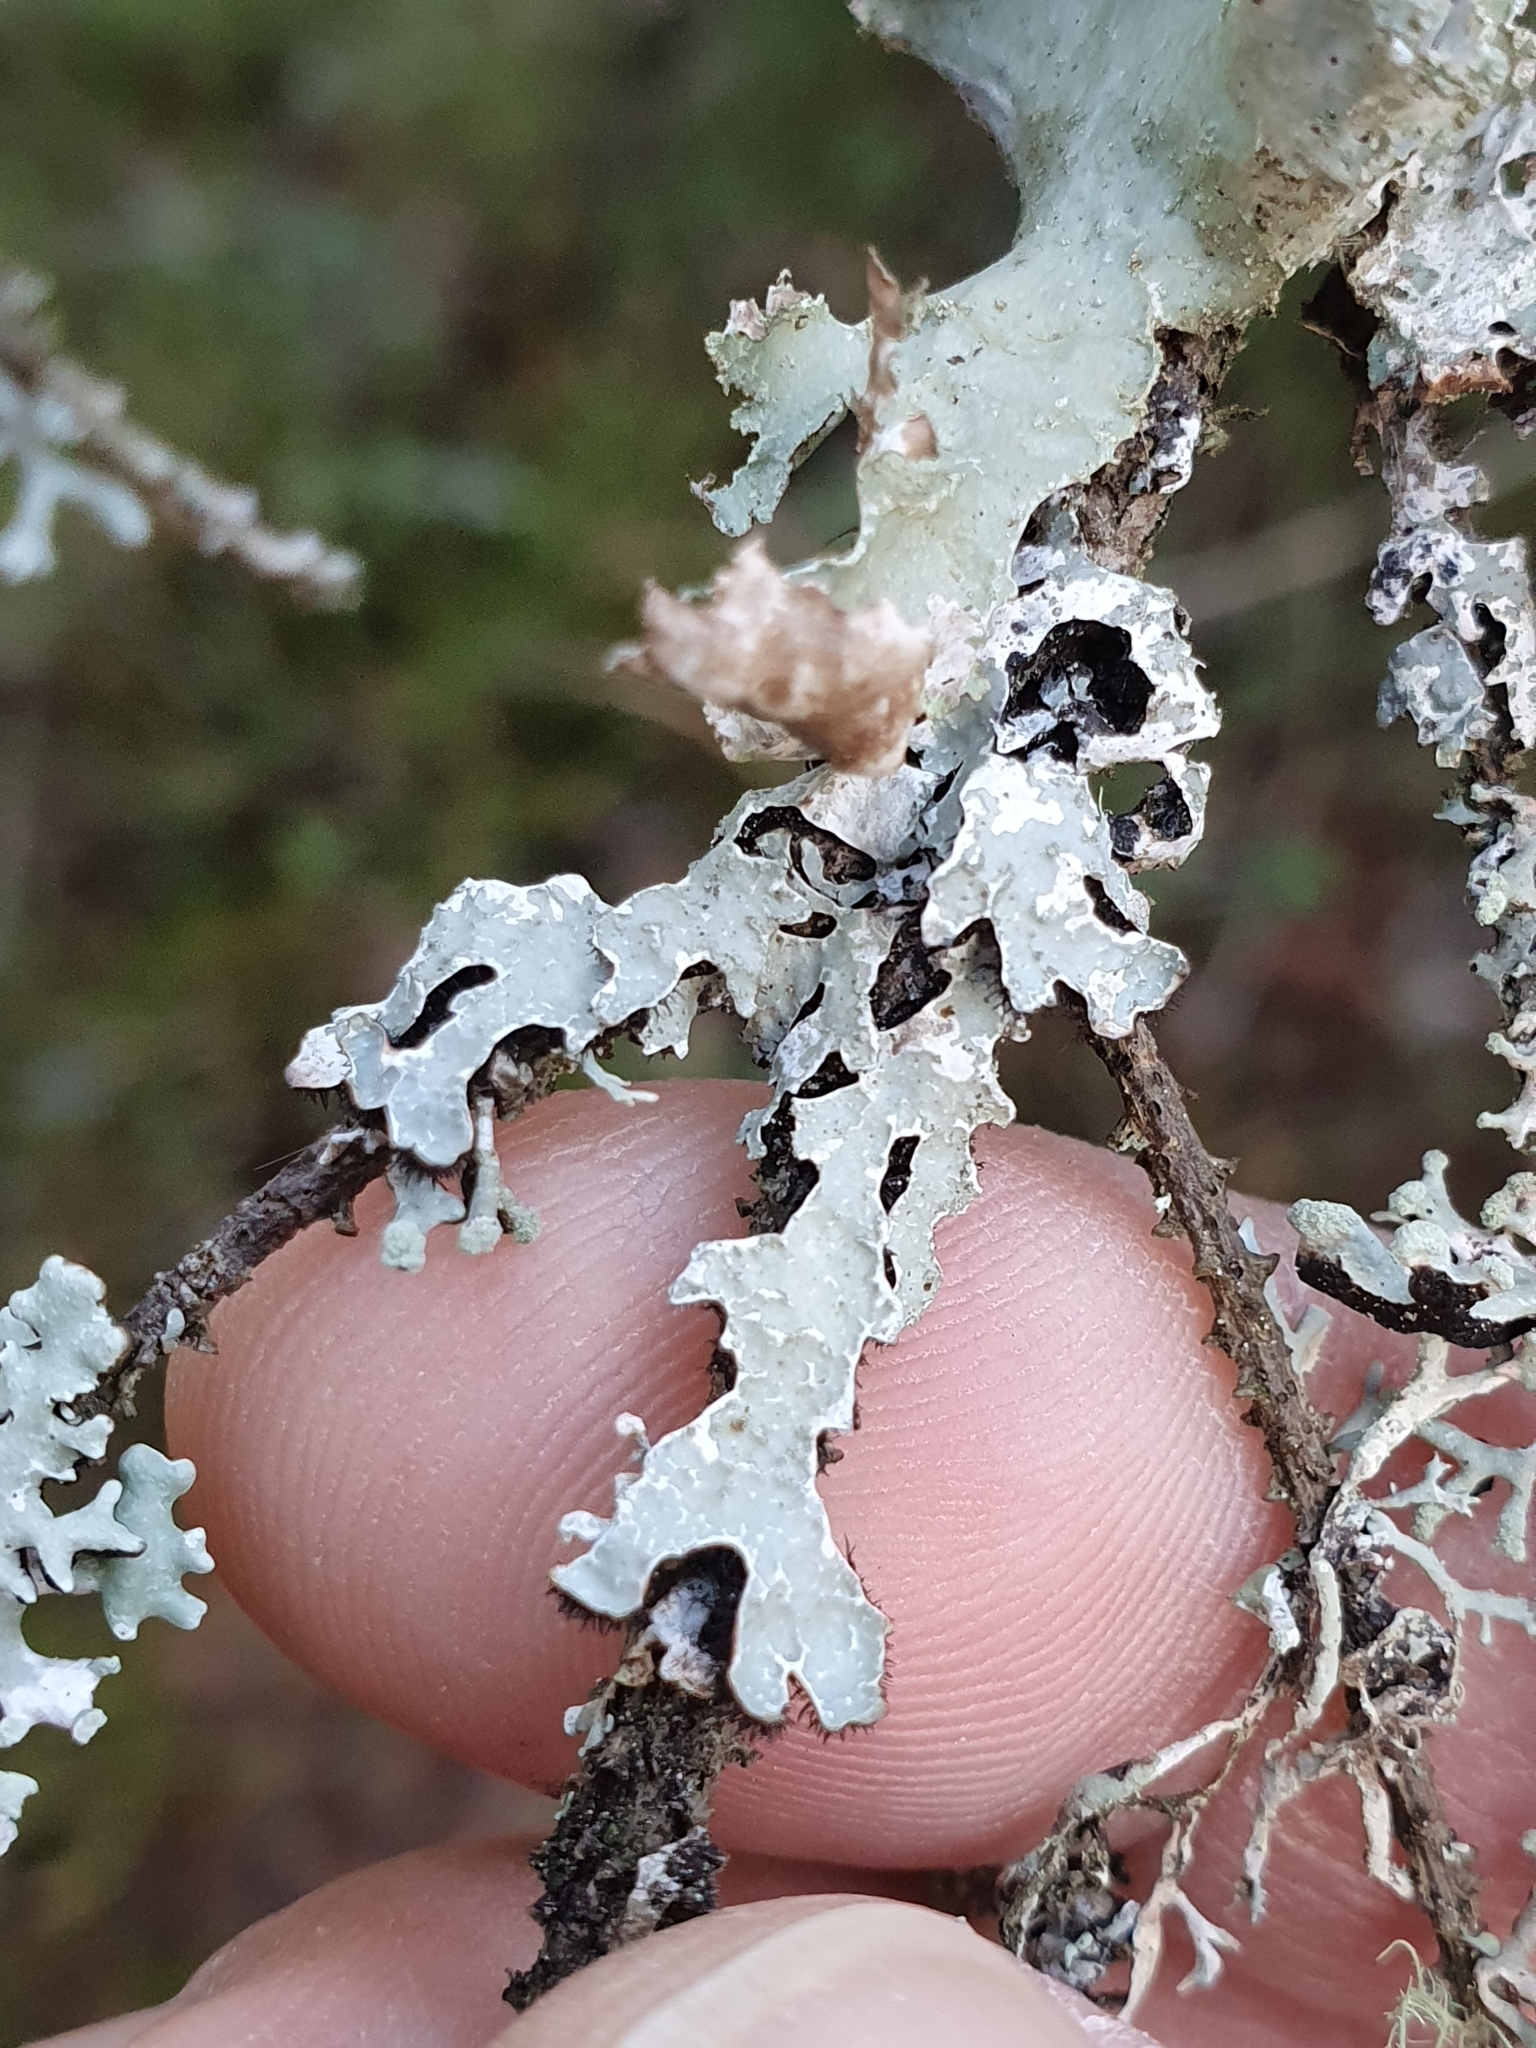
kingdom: Fungi
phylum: Ascomycota
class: Lecanoromycetes
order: Lecanorales
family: Parmeliaceae
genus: Parmelia
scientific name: Parmelia sulcata
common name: Netted shield lichen
